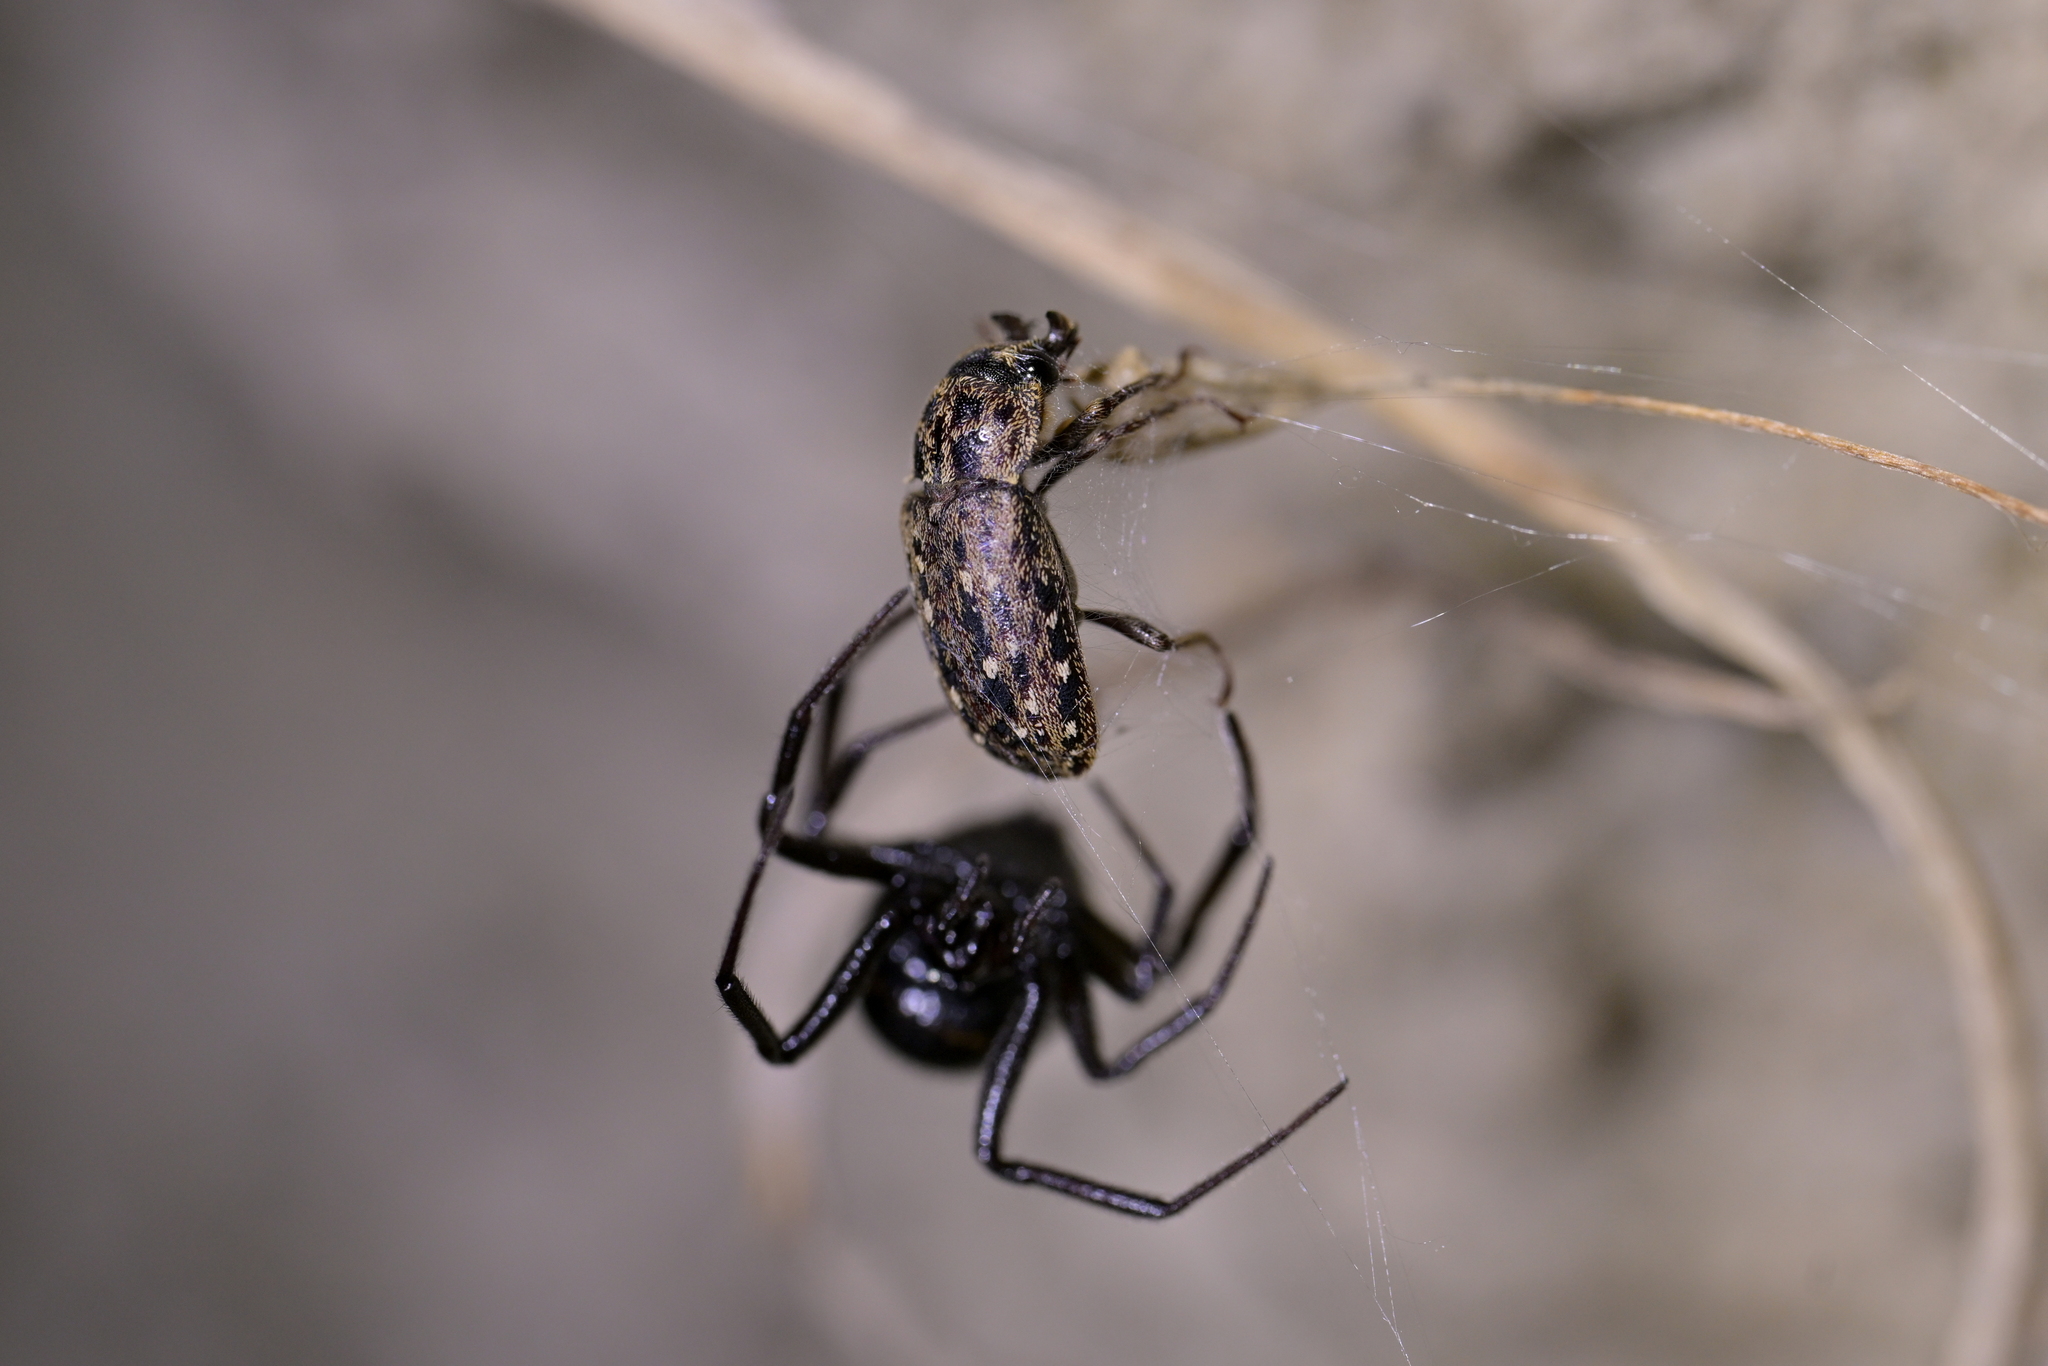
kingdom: Animalia
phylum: Arthropoda
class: Insecta
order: Coleoptera
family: Lucanidae
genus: Mitophyllus
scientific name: Mitophyllus irroratus
